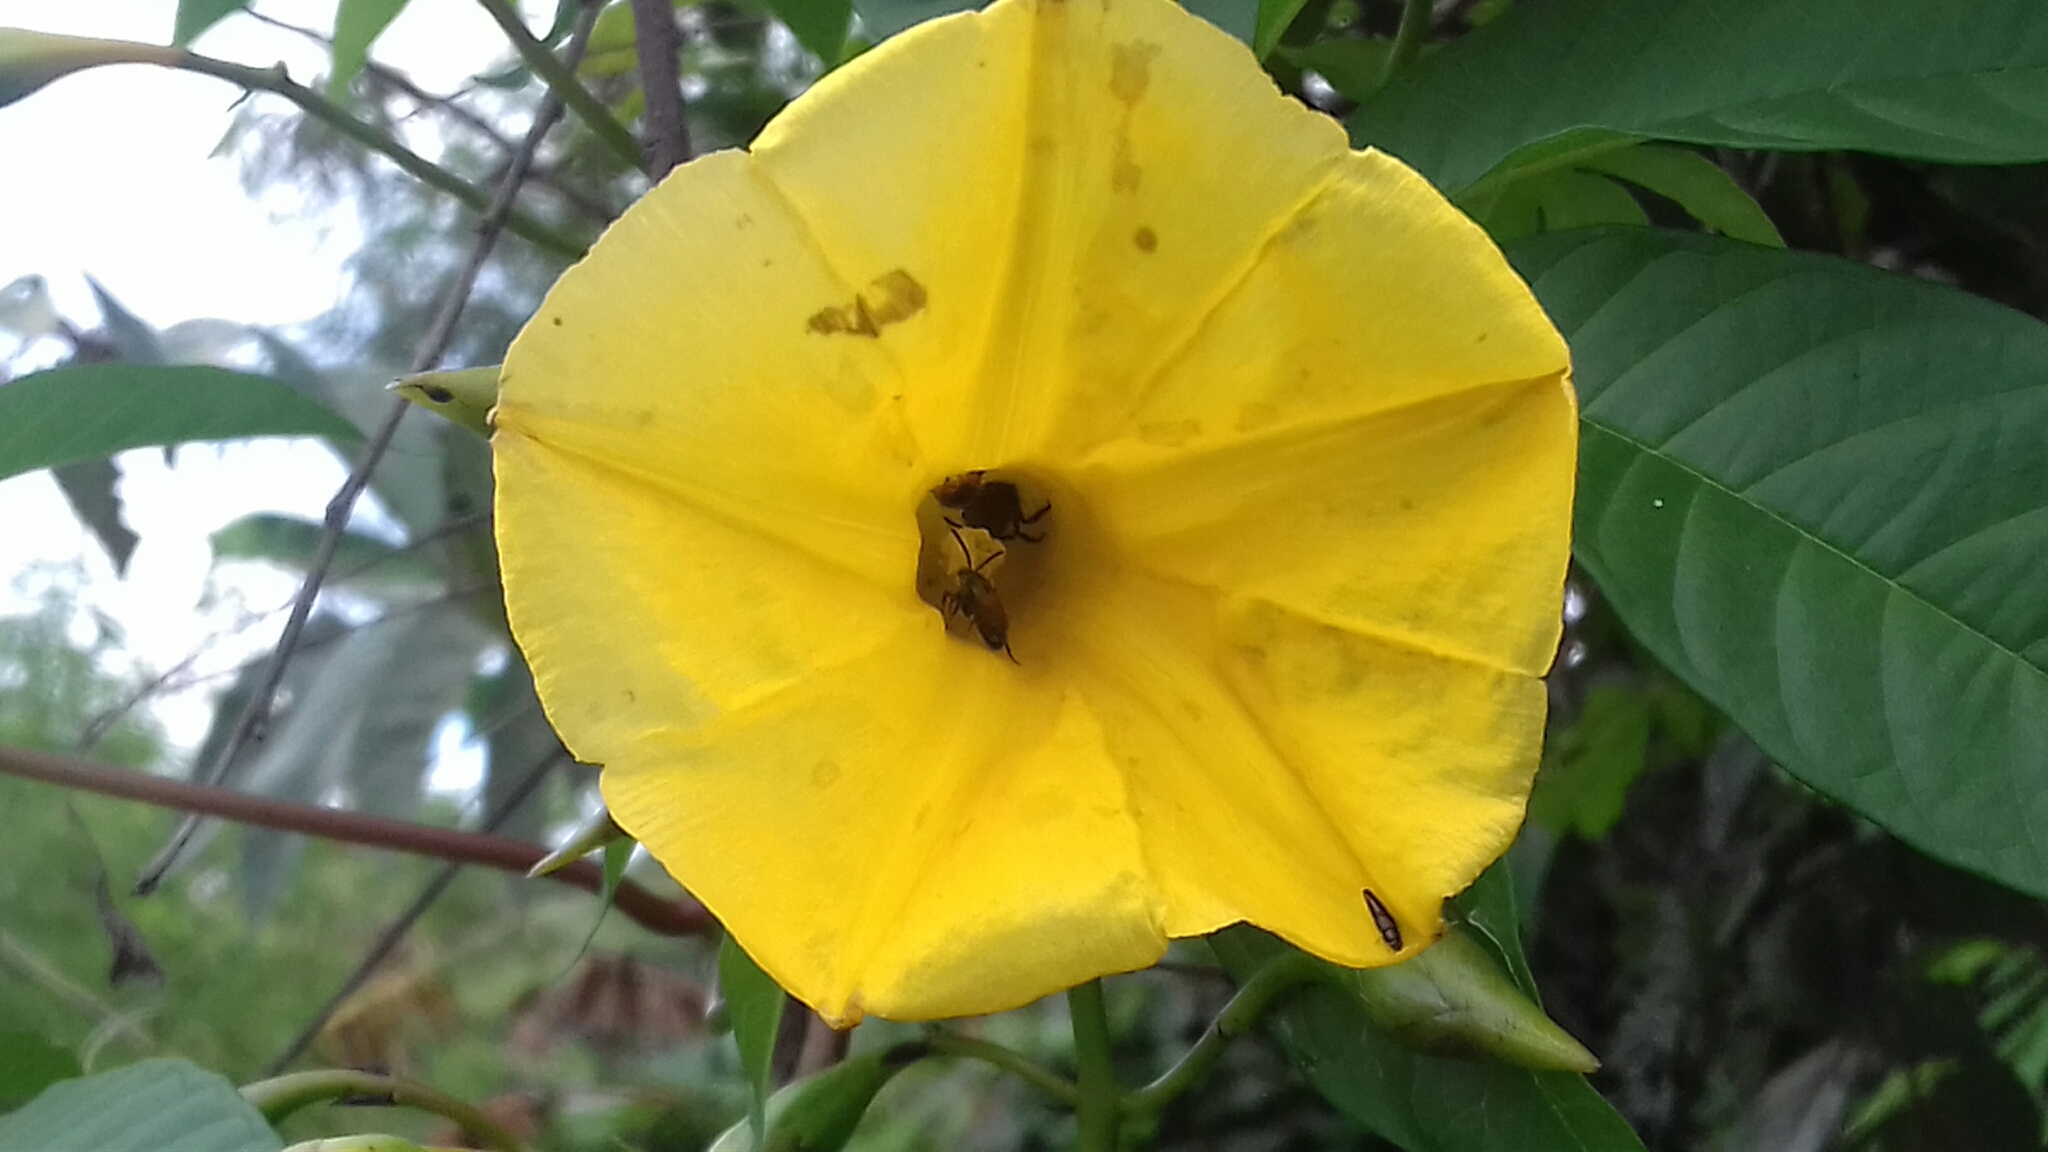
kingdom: Plantae
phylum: Tracheophyta
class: Magnoliopsida
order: Solanales
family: Convolvulaceae
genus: Distimake
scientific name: Distimake tuberosus
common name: Spanish arborvine
